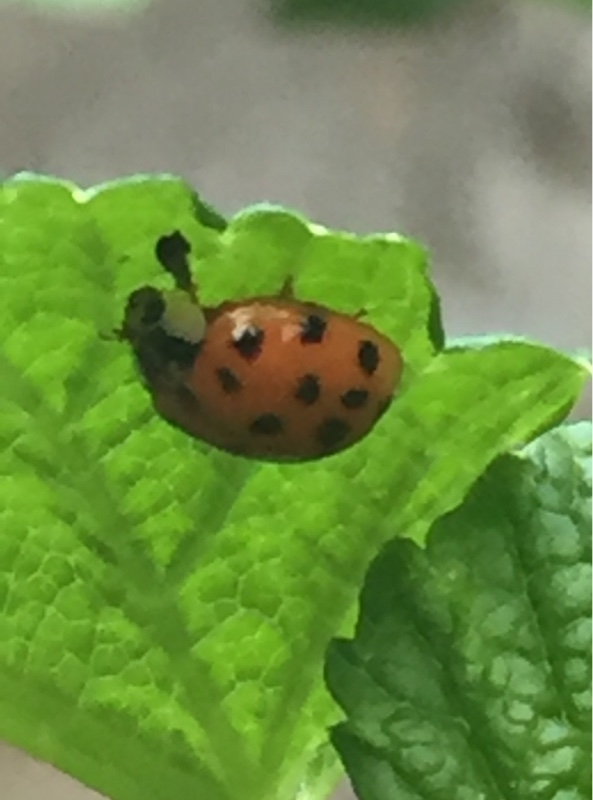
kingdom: Animalia
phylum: Arthropoda
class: Insecta
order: Coleoptera
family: Coccinellidae
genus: Harmonia
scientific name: Harmonia axyridis
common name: Harlequin ladybird
